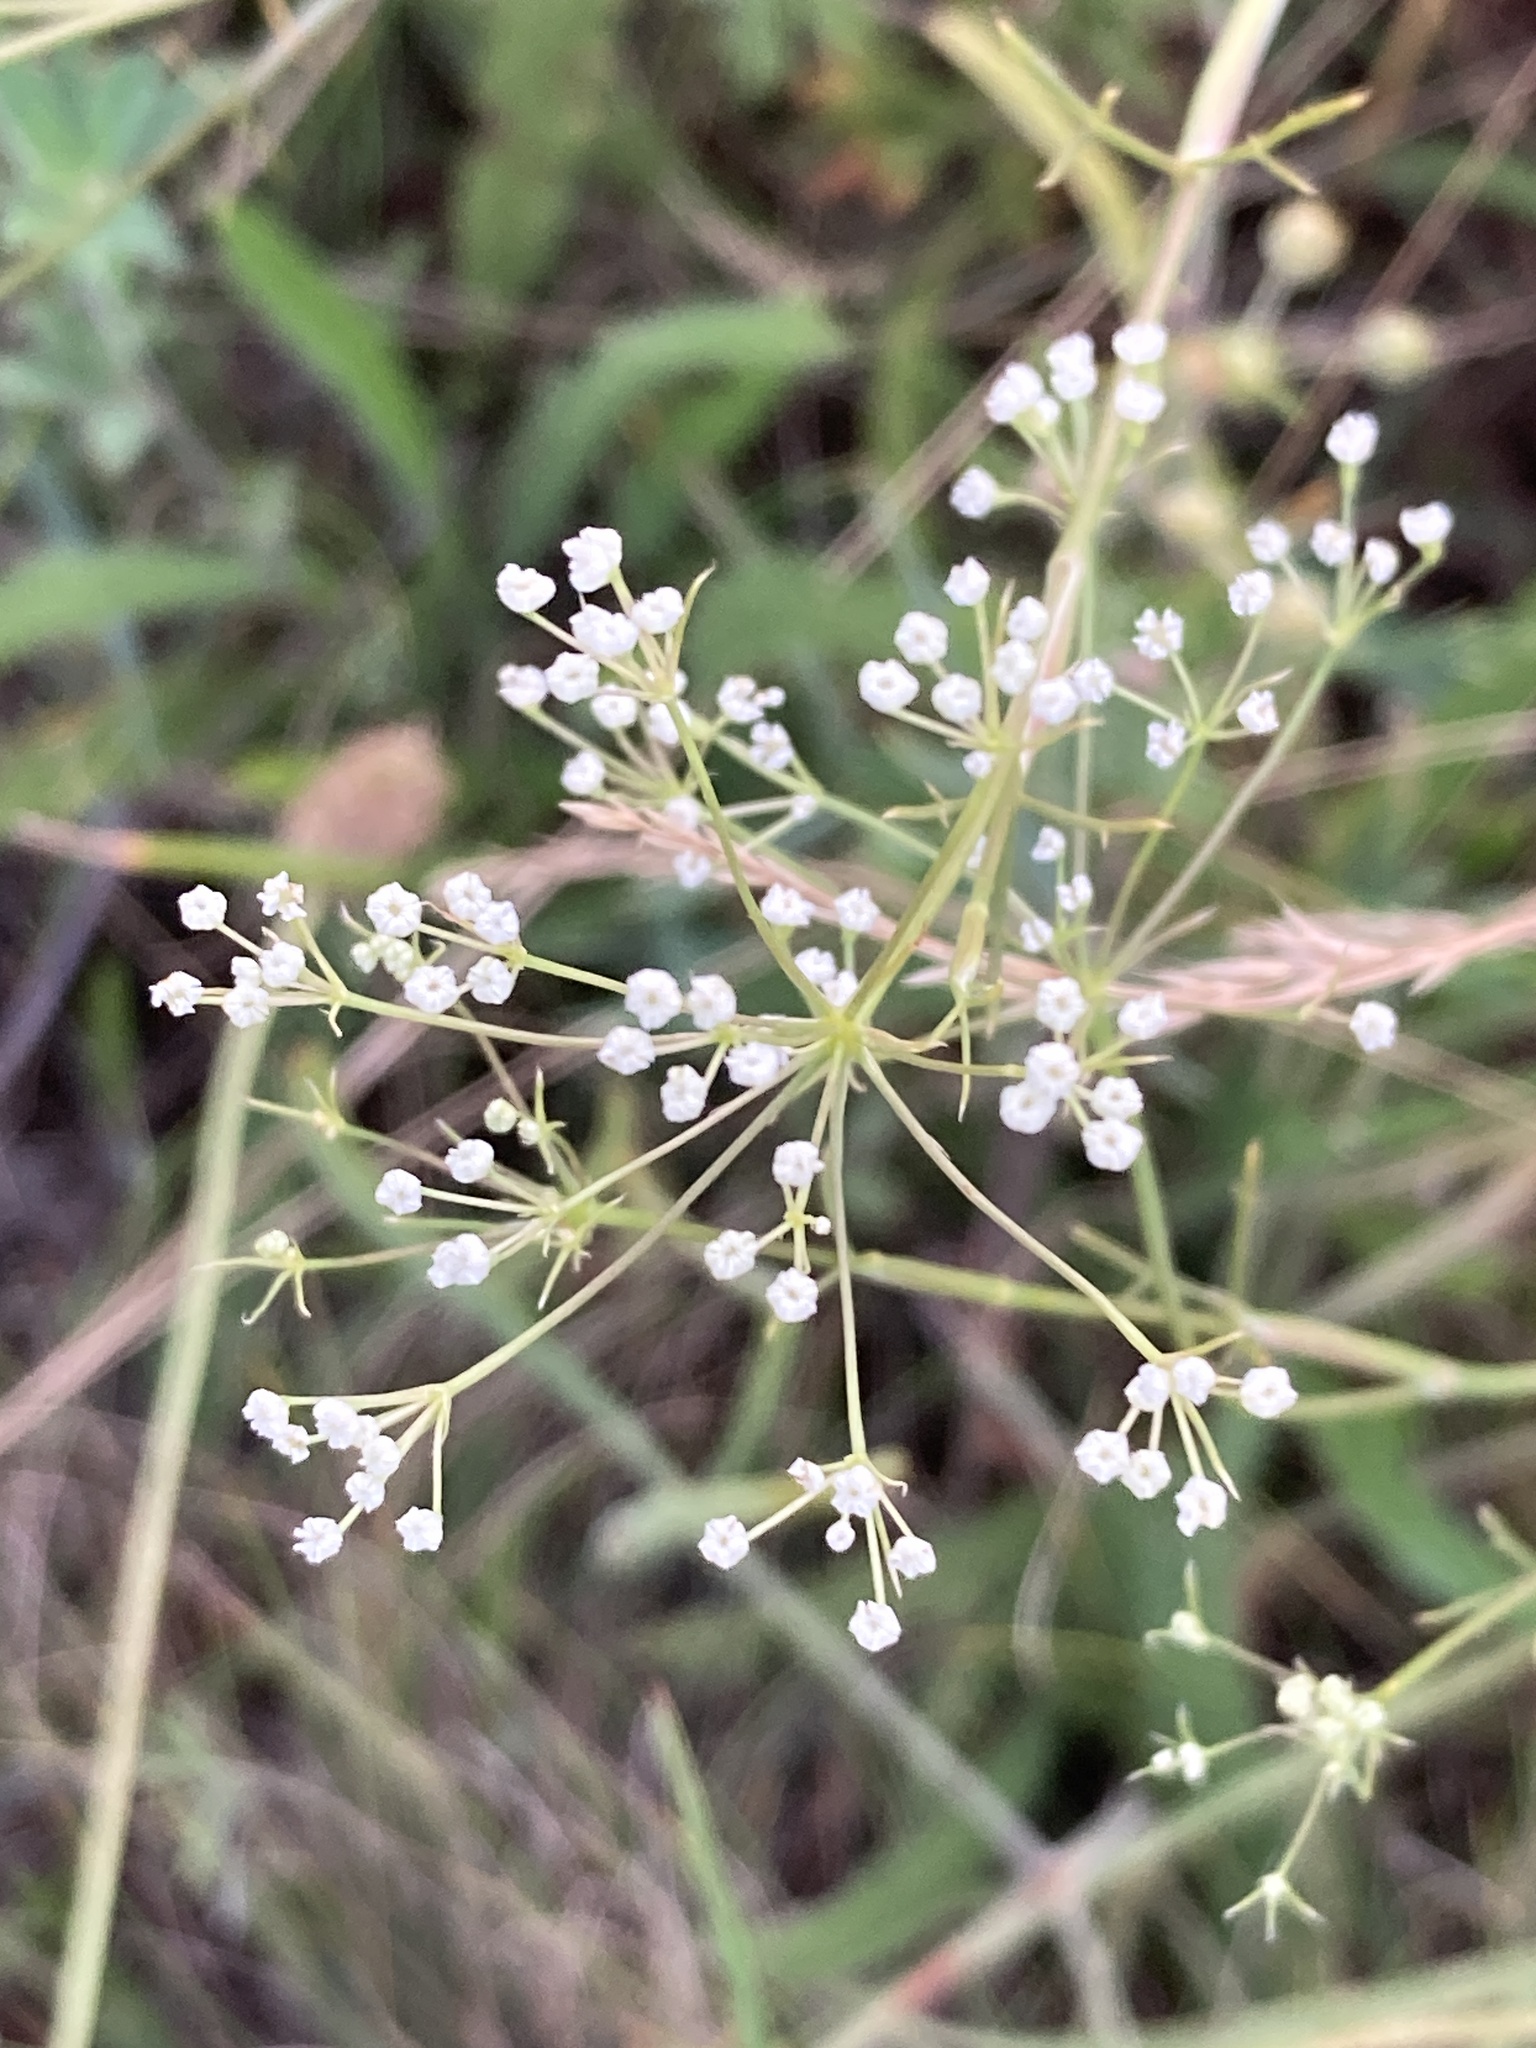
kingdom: Plantae
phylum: Tracheophyta
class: Magnoliopsida
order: Apiales
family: Apiaceae
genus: Falcaria
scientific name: Falcaria vulgaris
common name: Longleaf
